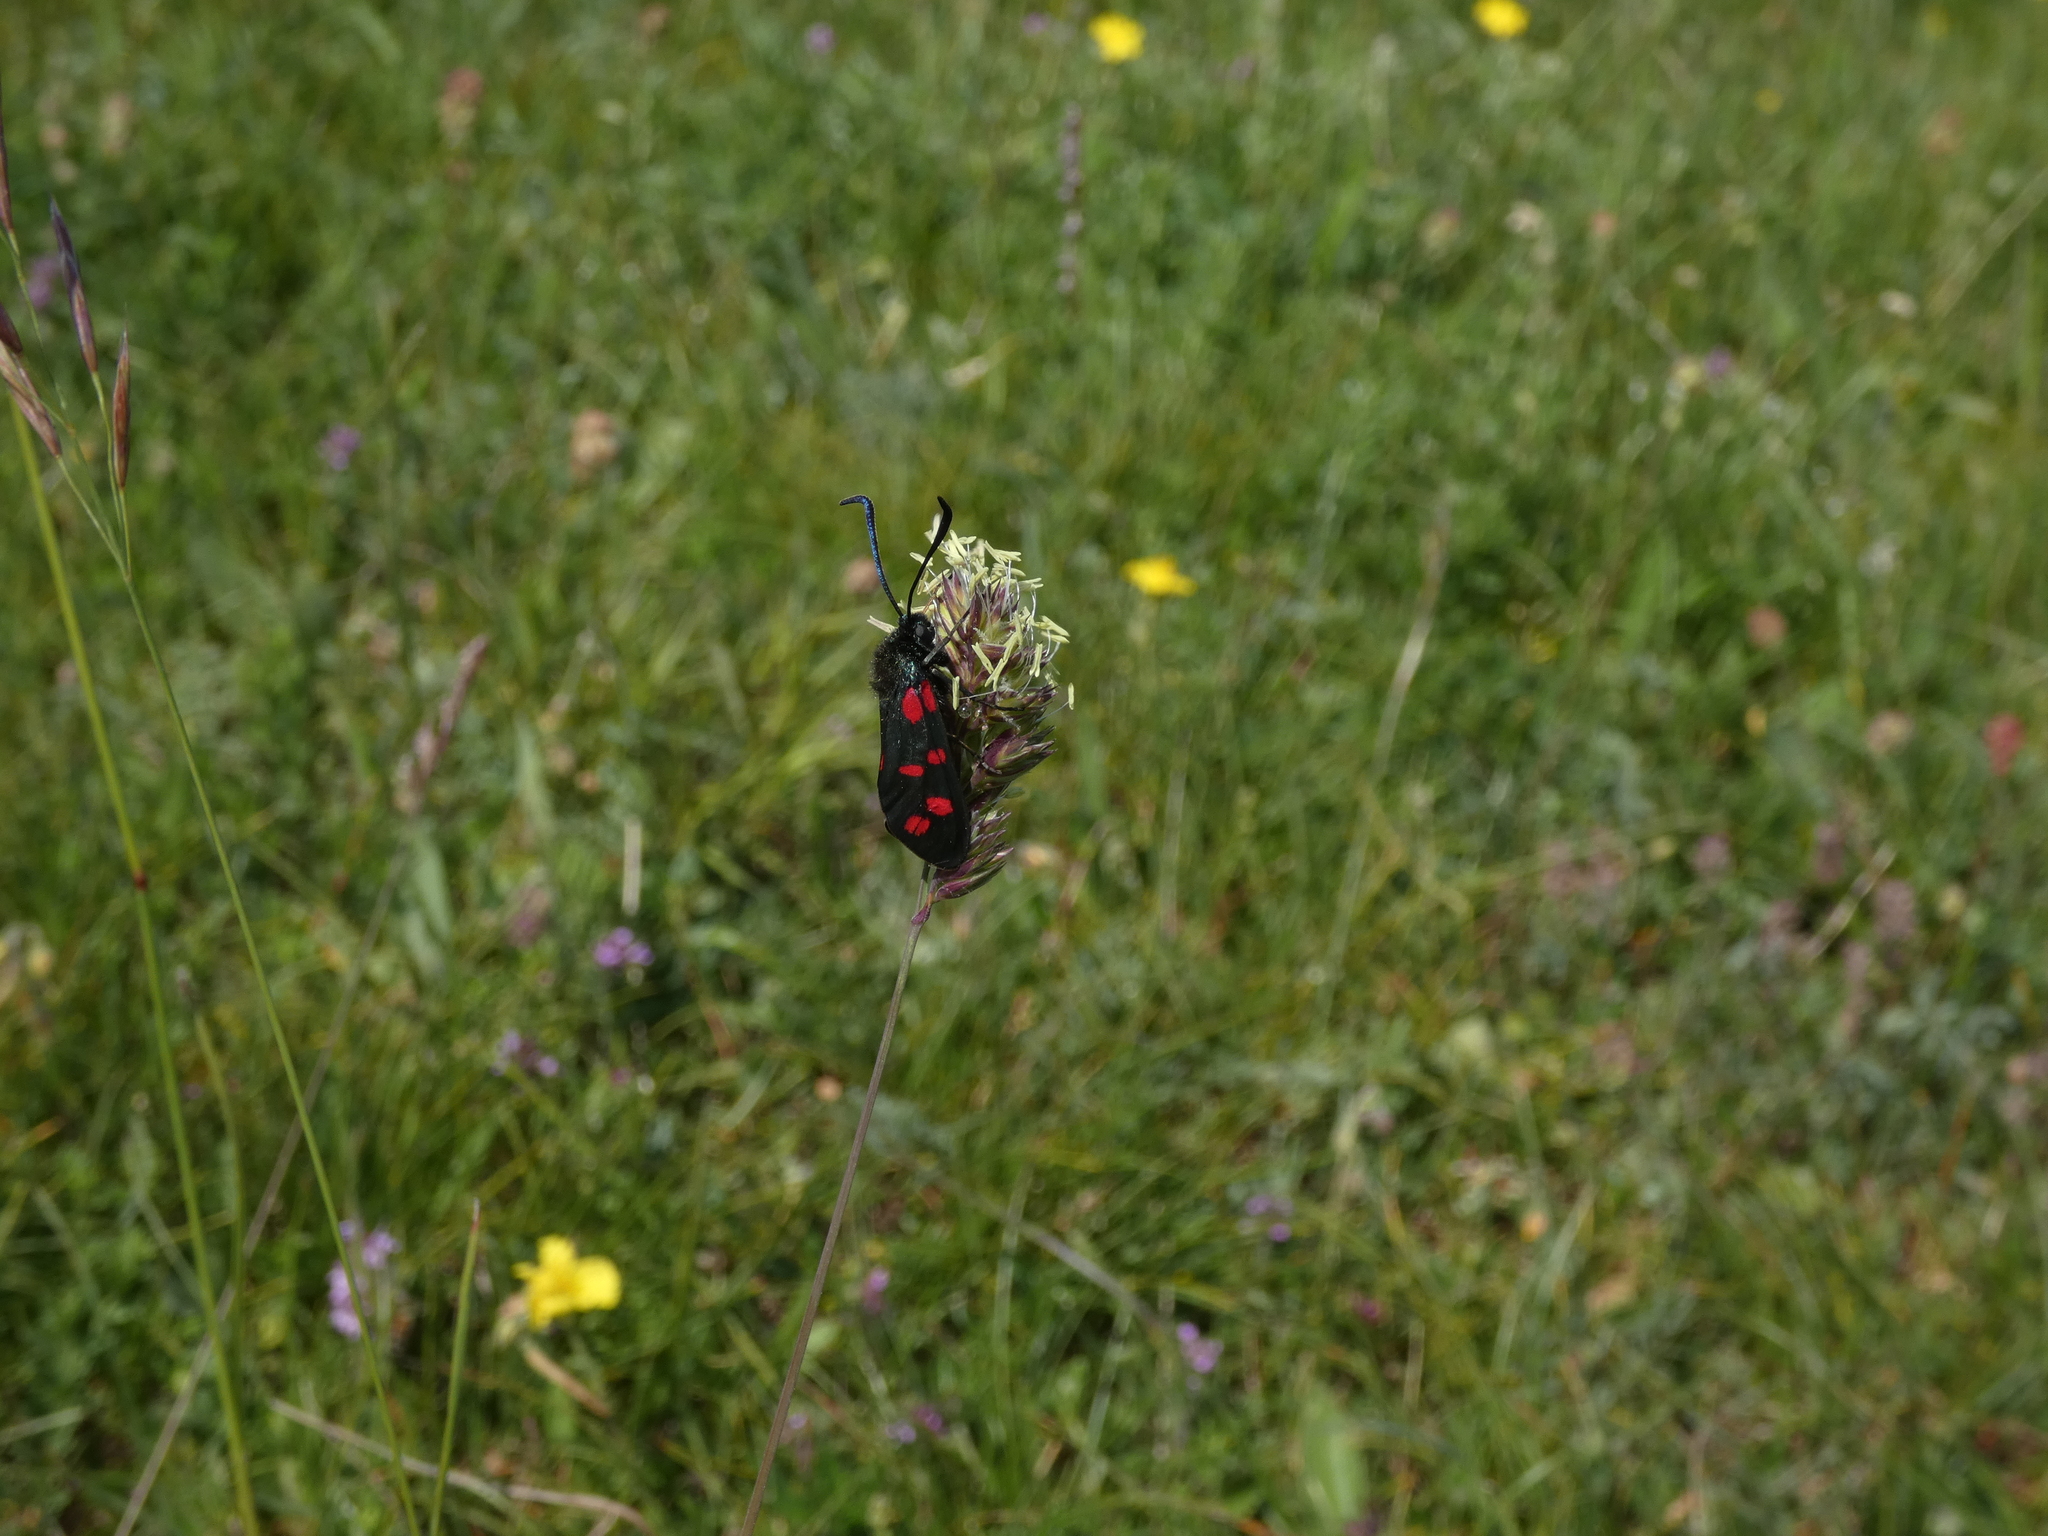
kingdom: Animalia
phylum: Arthropoda
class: Insecta
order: Lepidoptera
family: Zygaenidae
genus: Zygaena
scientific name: Zygaena filipendulae
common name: Six-spot burnet
